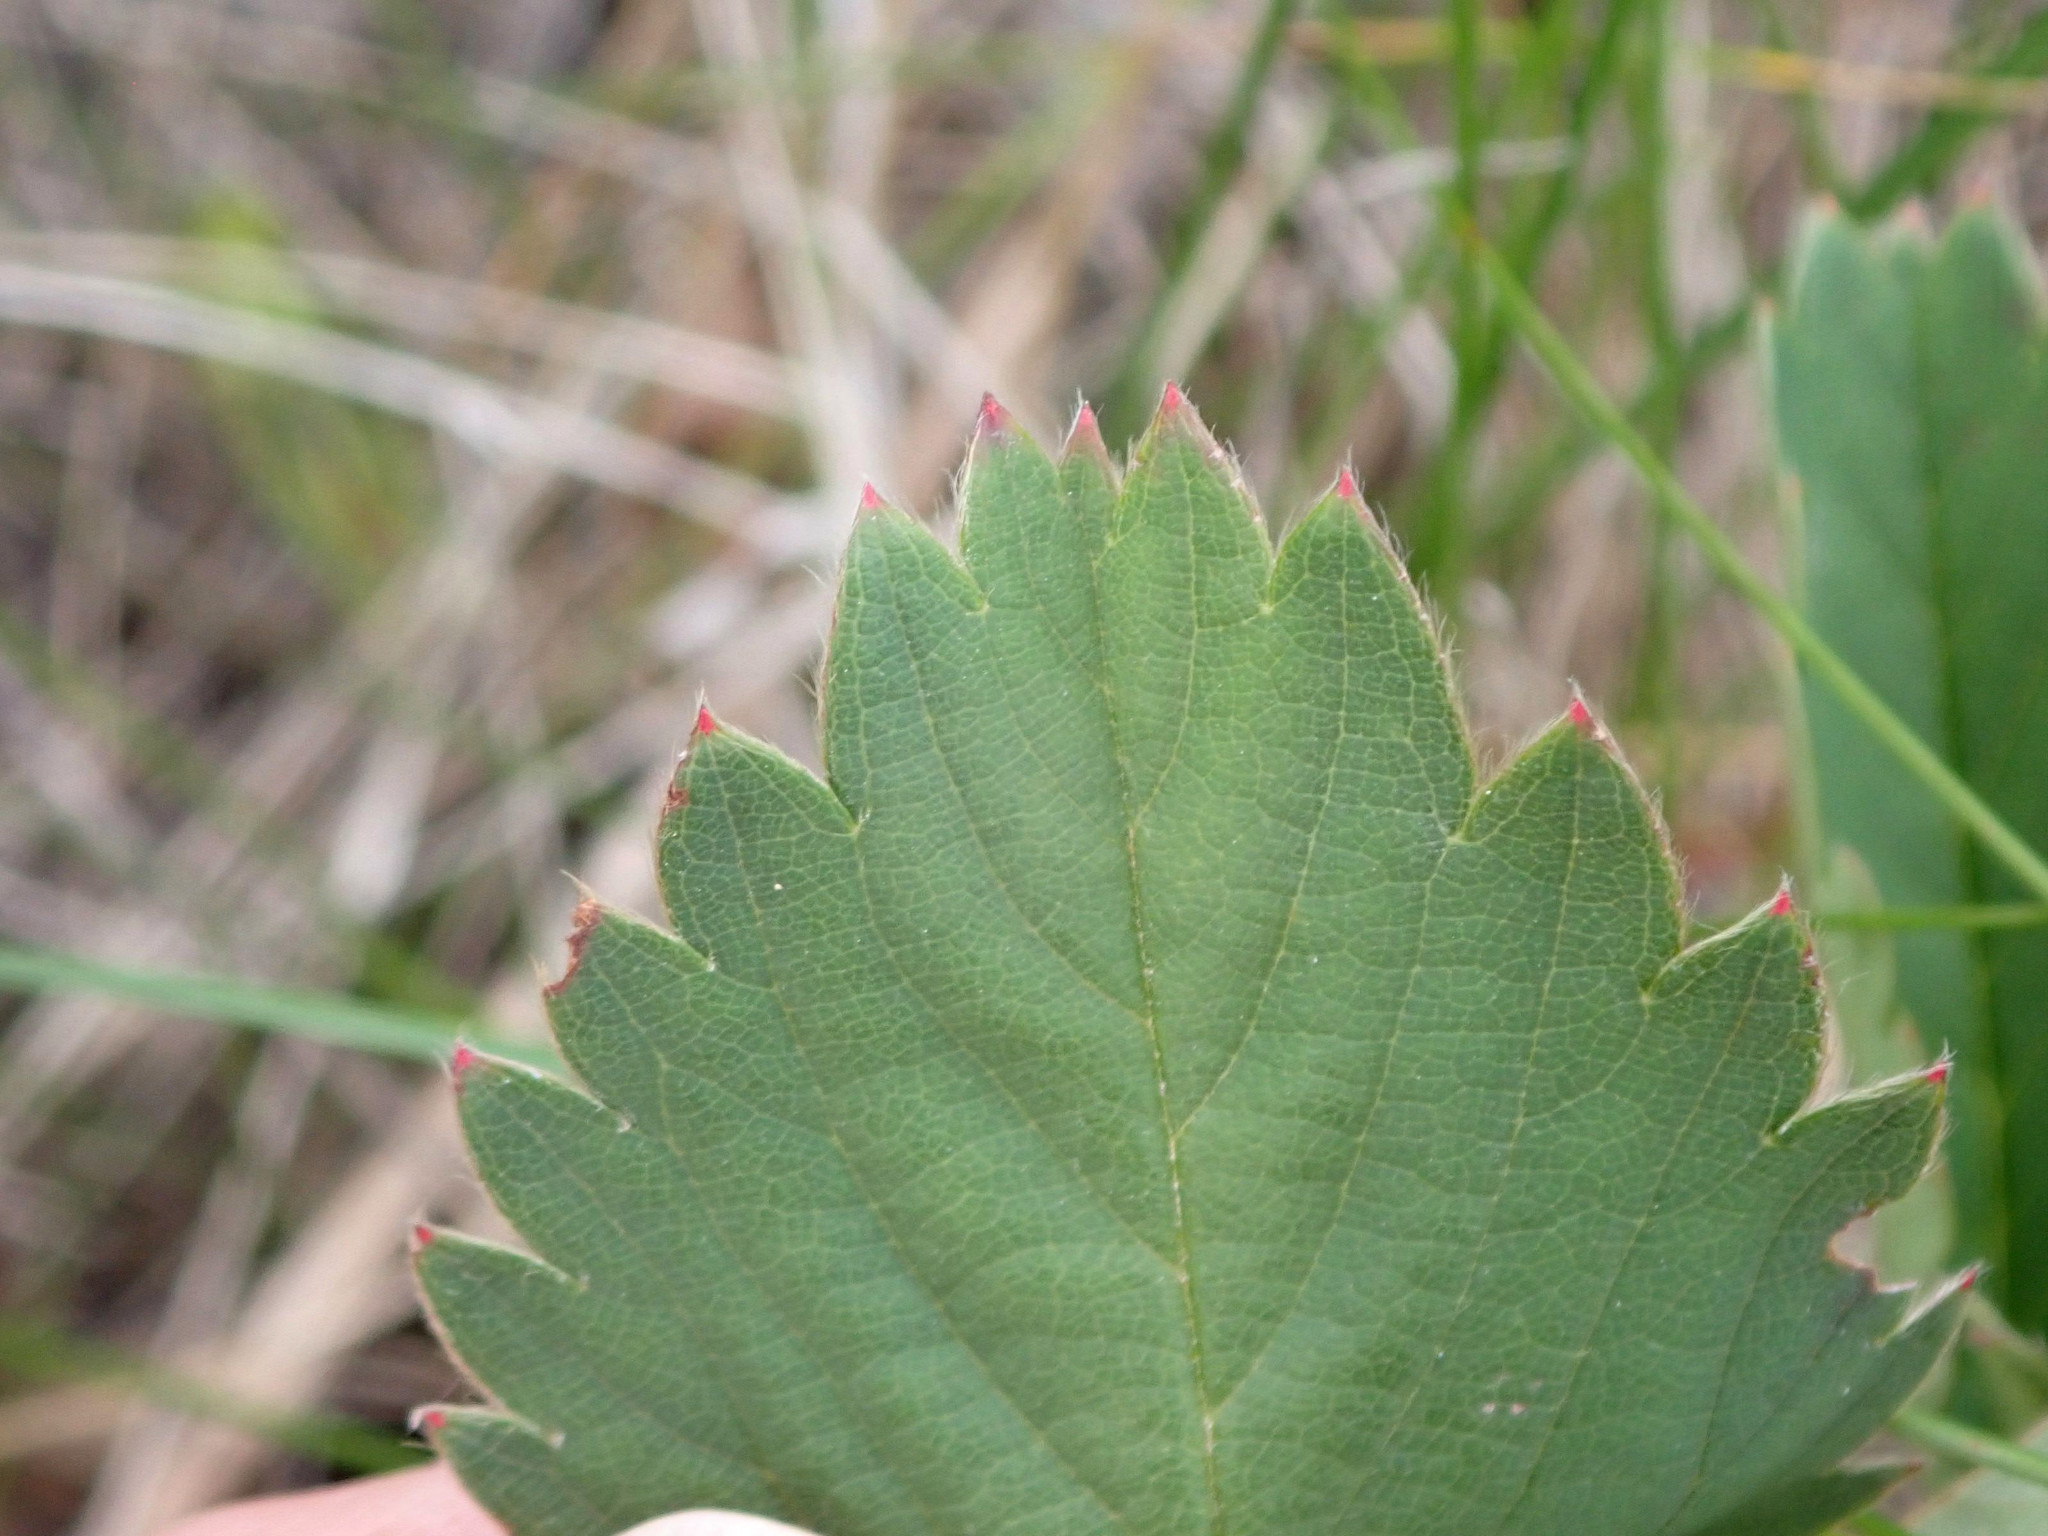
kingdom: Plantae
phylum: Tracheophyta
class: Magnoliopsida
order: Rosales
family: Rosaceae
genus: Fragaria
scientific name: Fragaria virginiana
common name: Thickleaved wild strawberry
